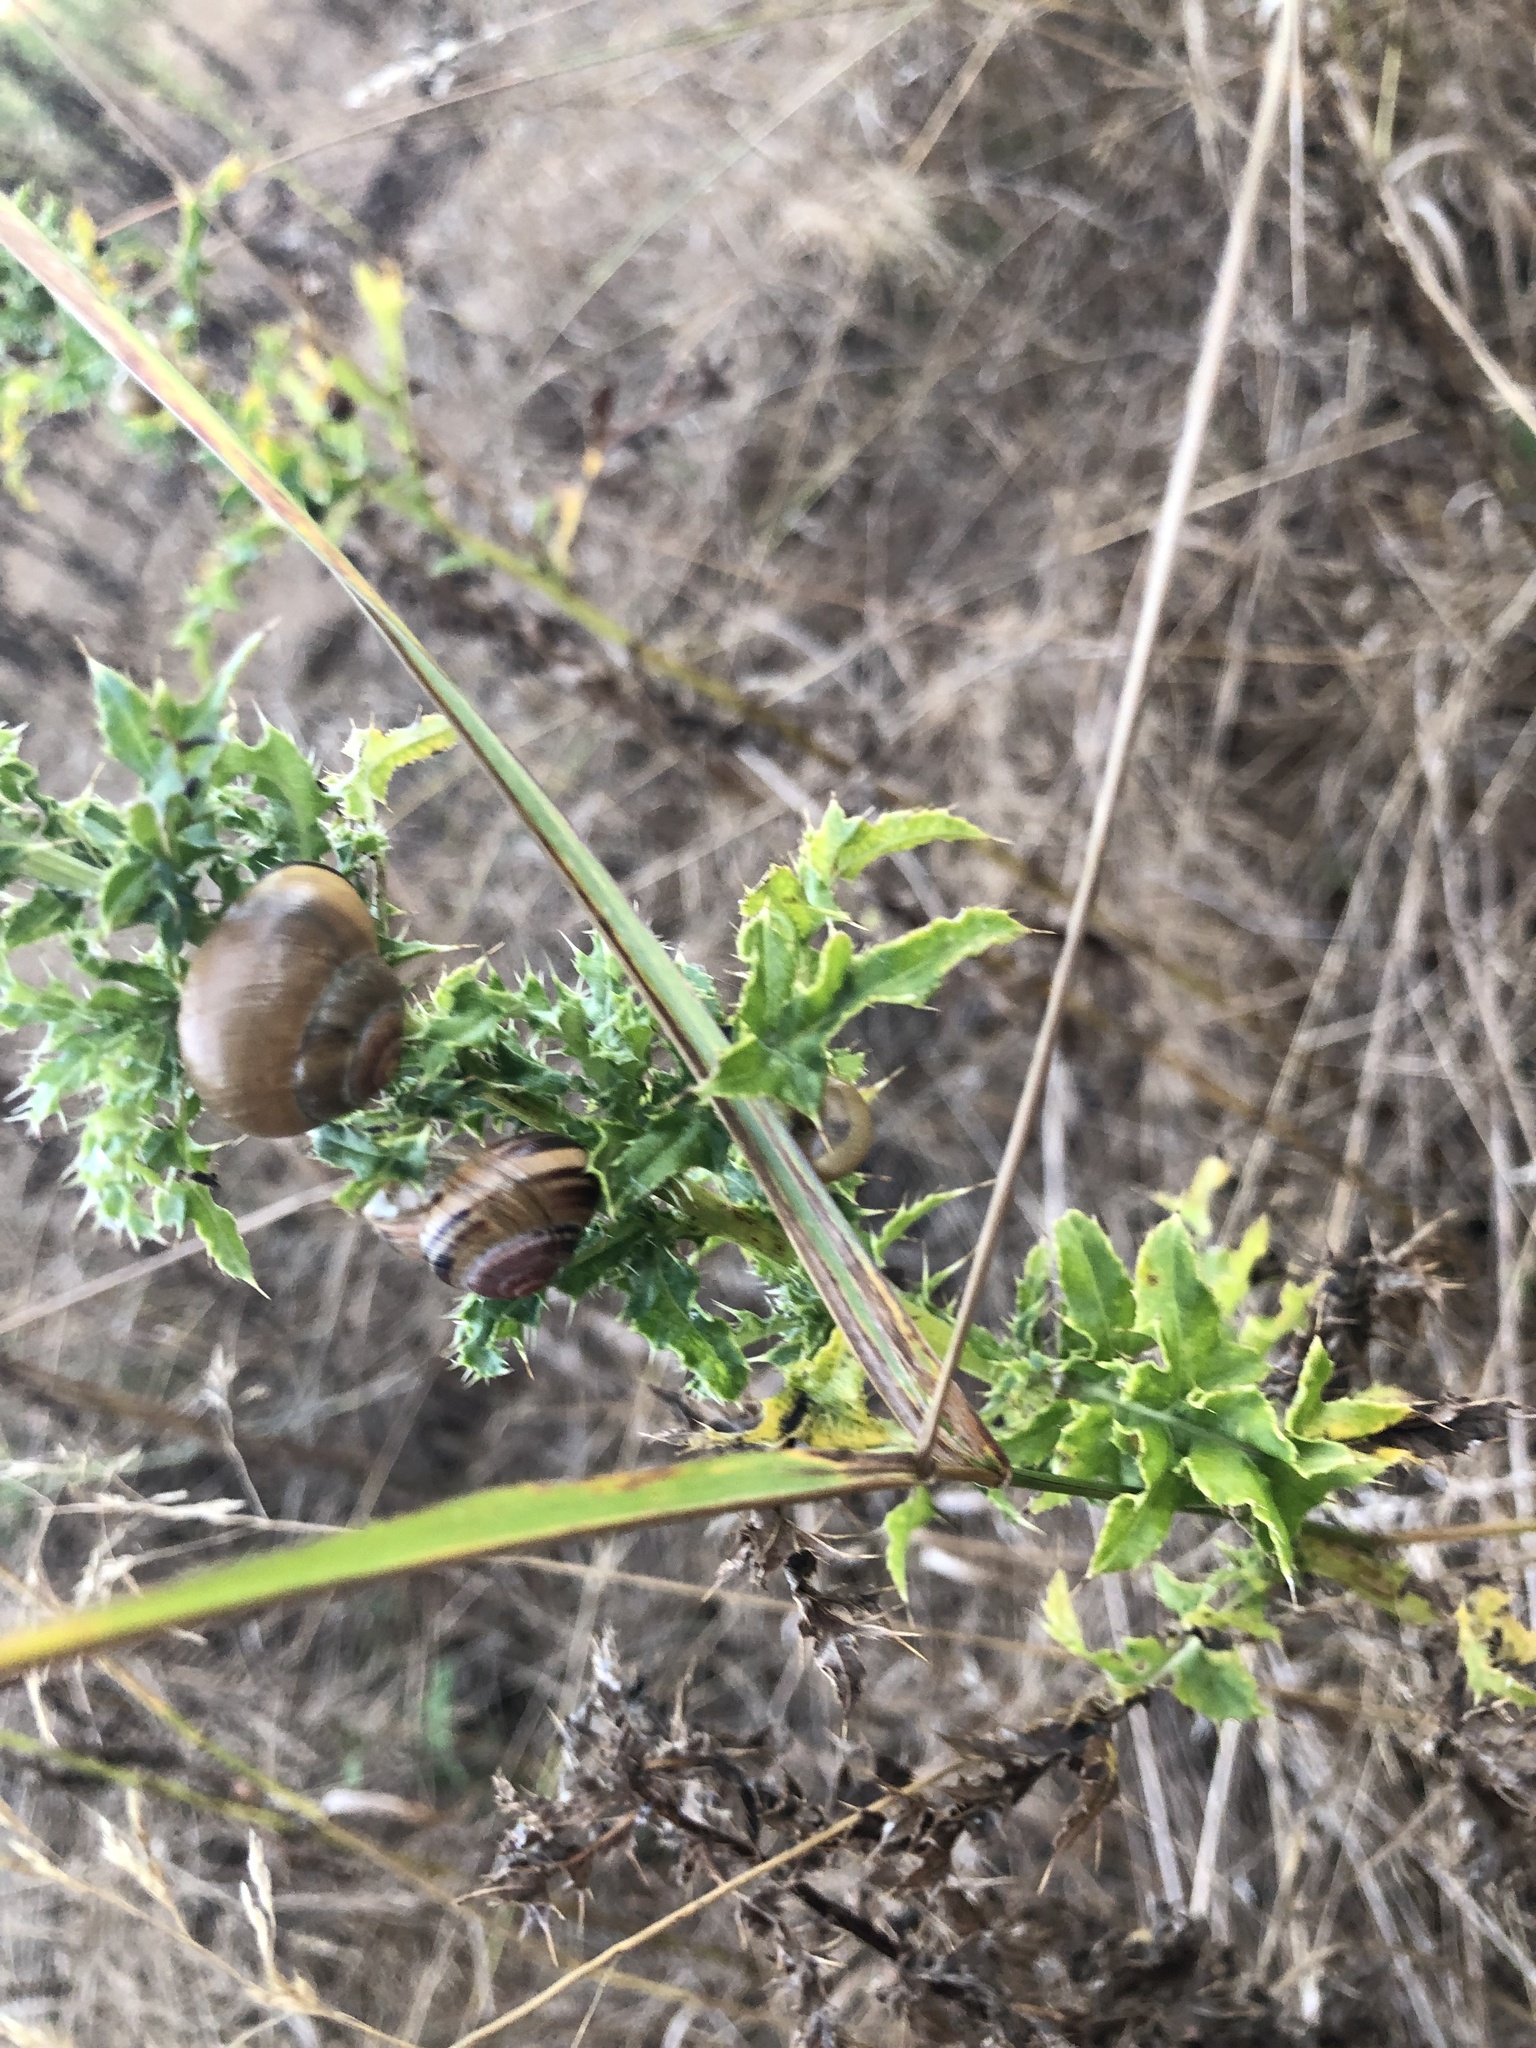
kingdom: Animalia
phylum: Mollusca
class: Gastropoda
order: Stylommatophora
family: Helicidae
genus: Cepaea
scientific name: Cepaea nemoralis
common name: Grovesnail
